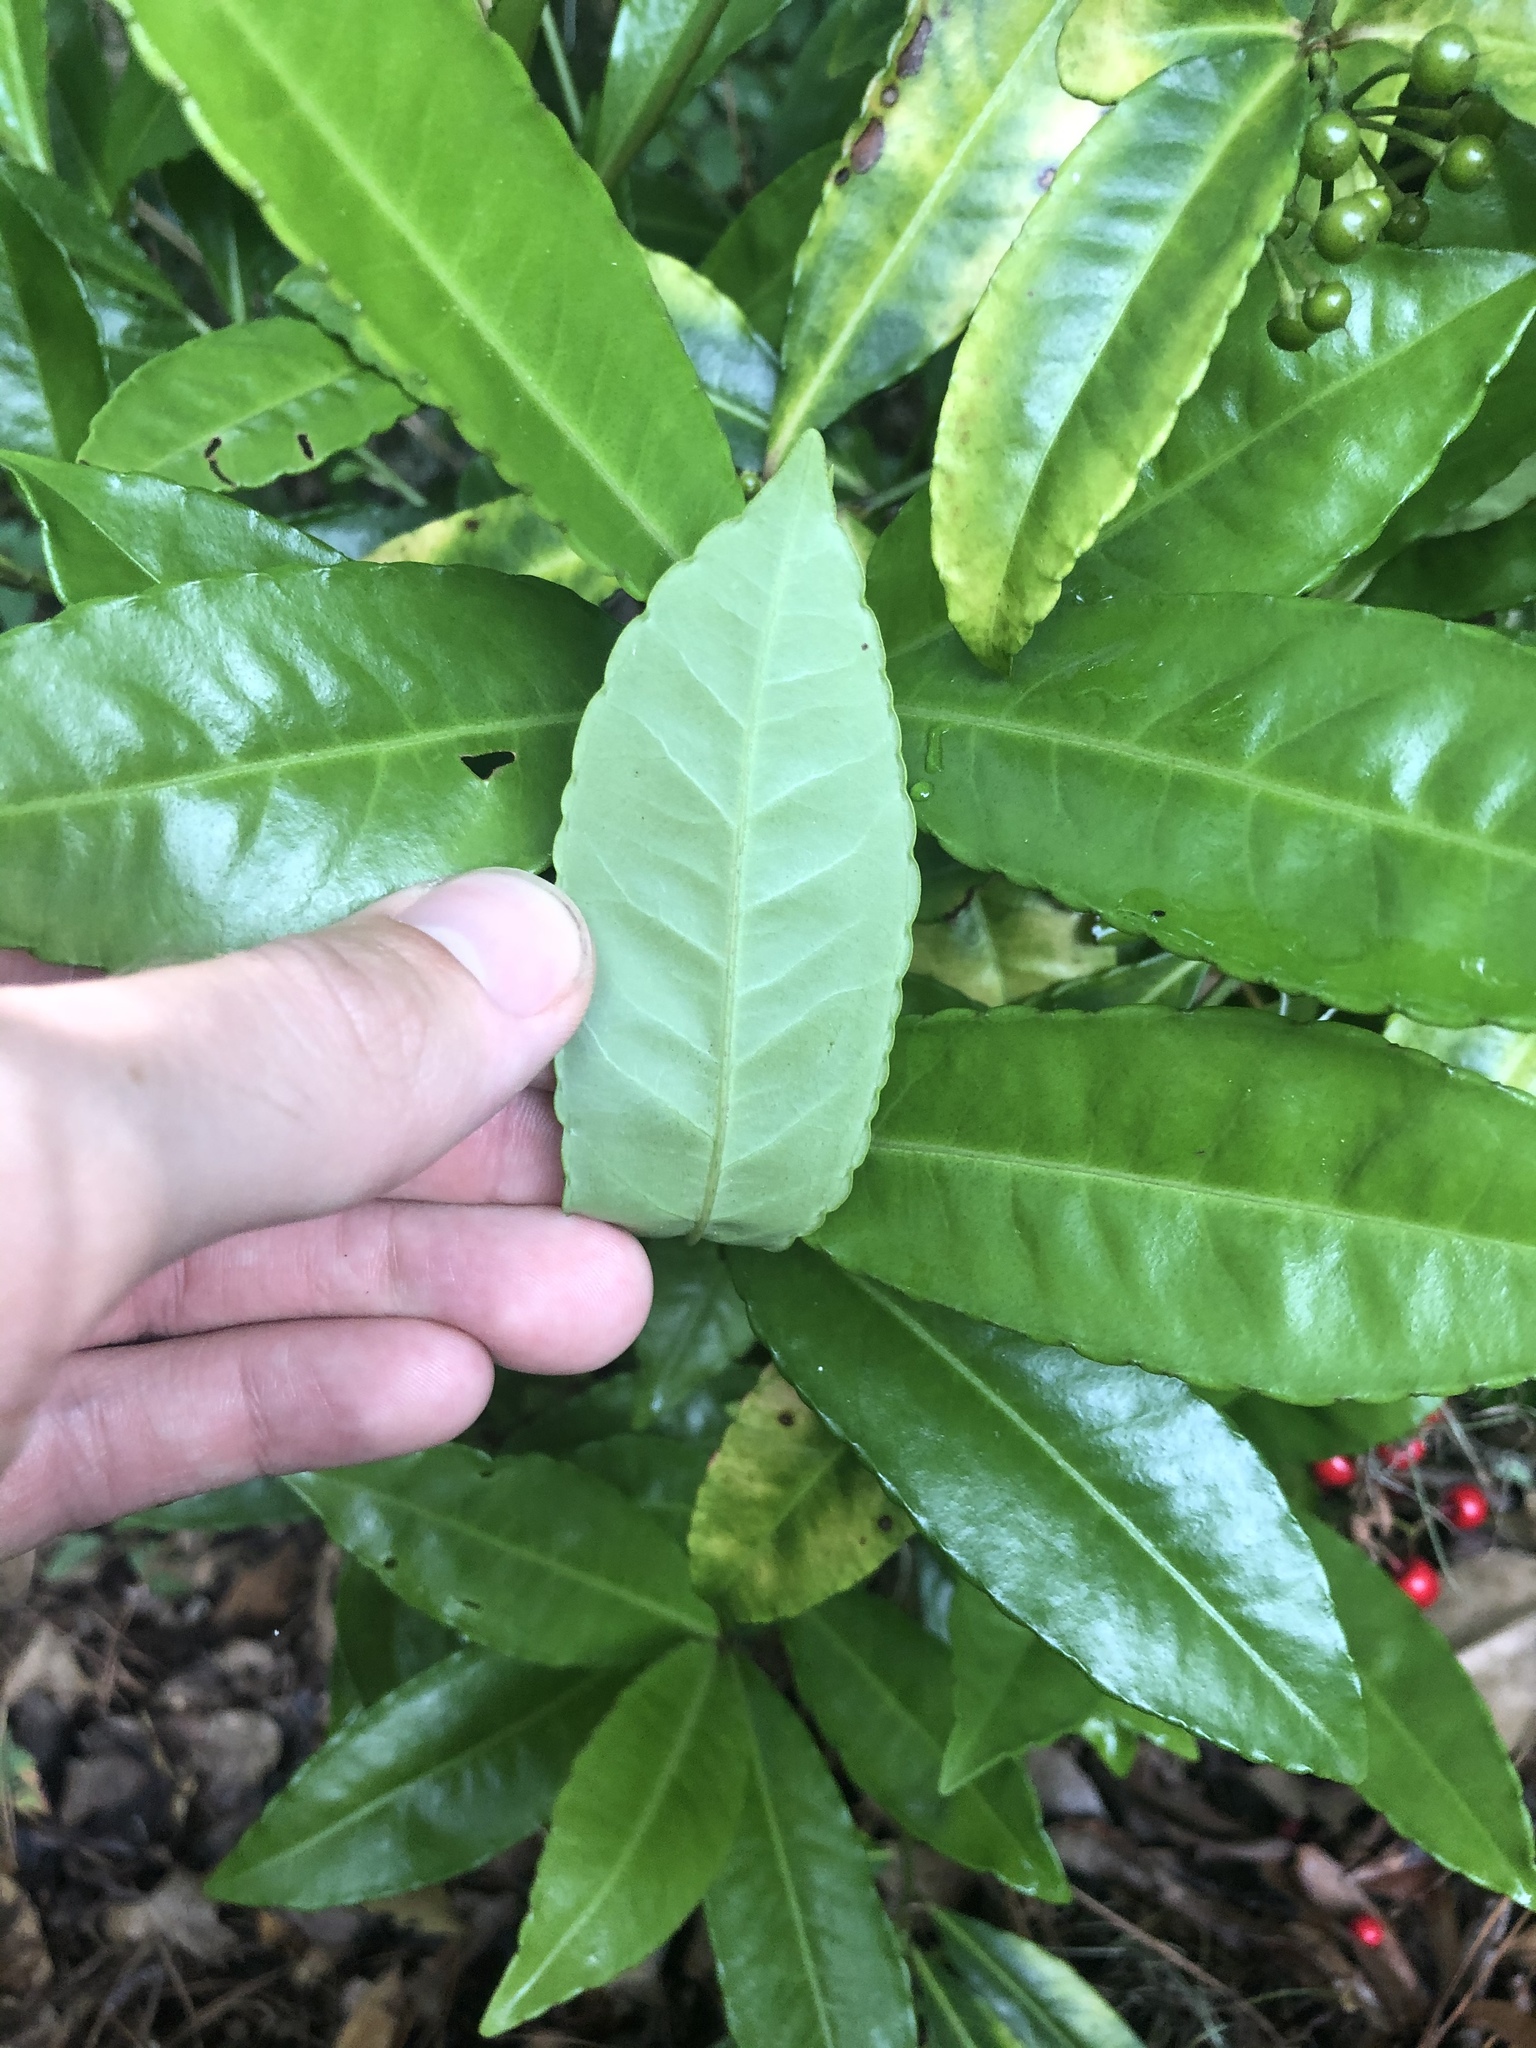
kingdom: Plantae
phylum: Tracheophyta
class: Magnoliopsida
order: Ericales
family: Primulaceae
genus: Ardisia
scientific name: Ardisia crenata
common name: Hen's eyes
